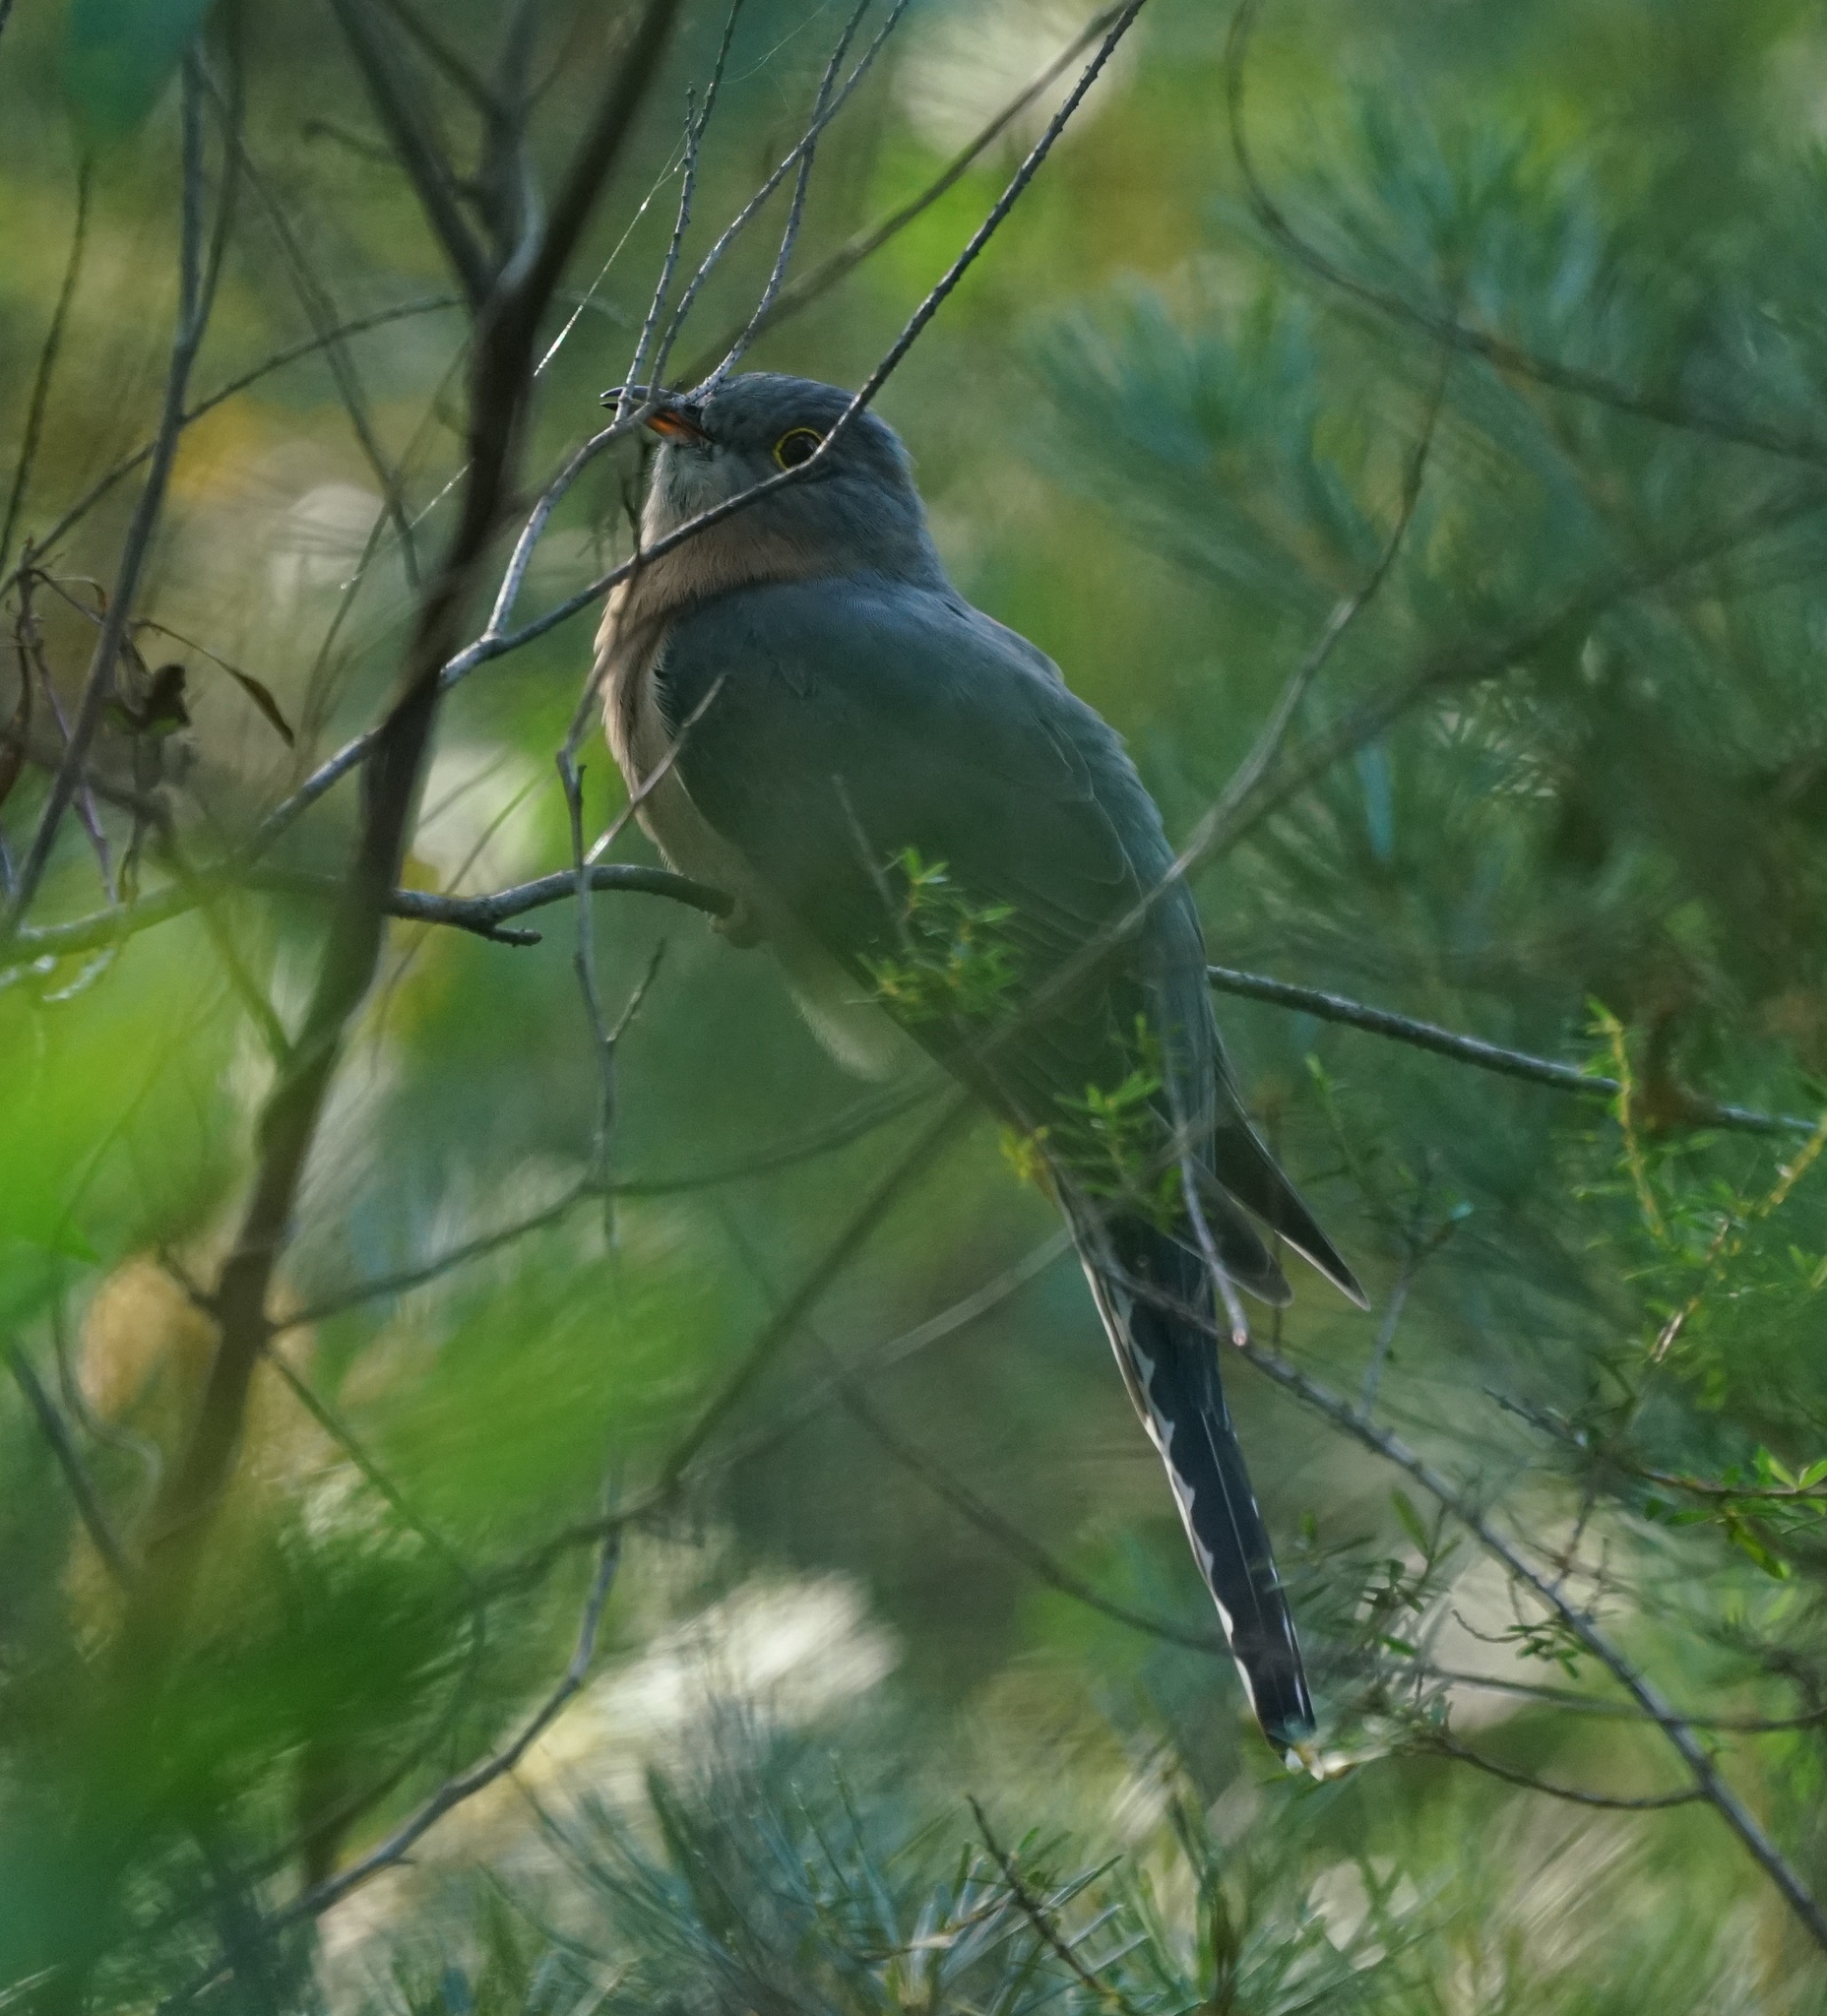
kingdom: Animalia
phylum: Chordata
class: Aves
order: Cuculiformes
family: Cuculidae
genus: Cacomantis
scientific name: Cacomantis flabelliformis
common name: Fan-tailed cuckoo
